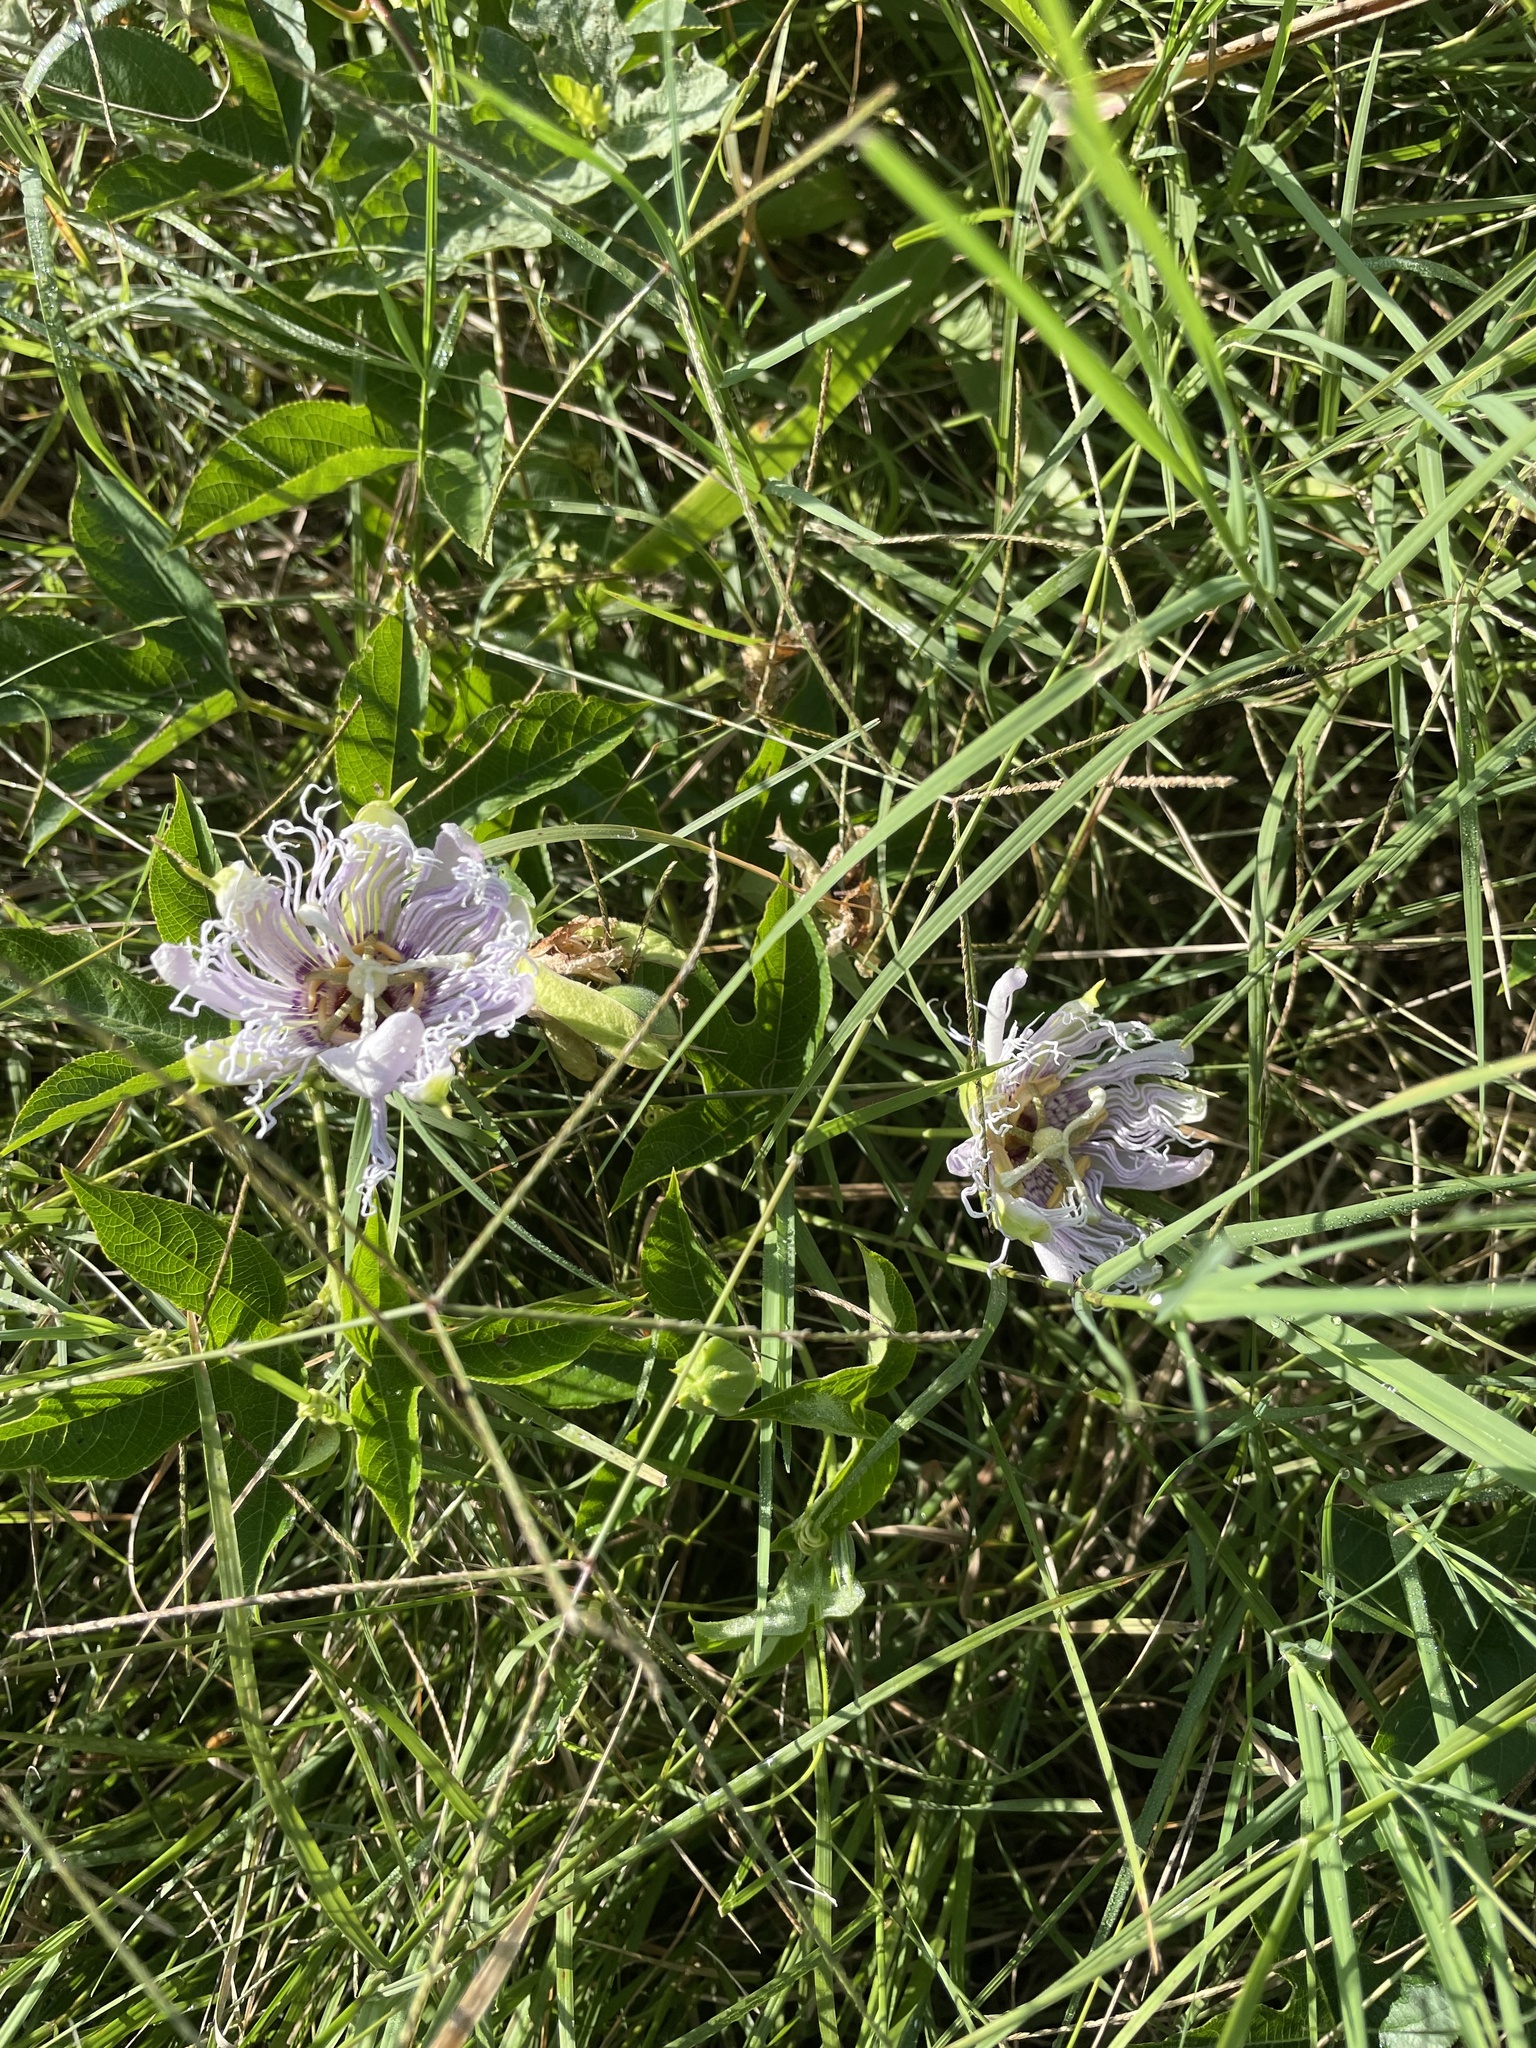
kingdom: Plantae
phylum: Tracheophyta
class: Magnoliopsida
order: Malpighiales
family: Passifloraceae
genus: Passiflora
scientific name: Passiflora incarnata
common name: Apricot-vine
